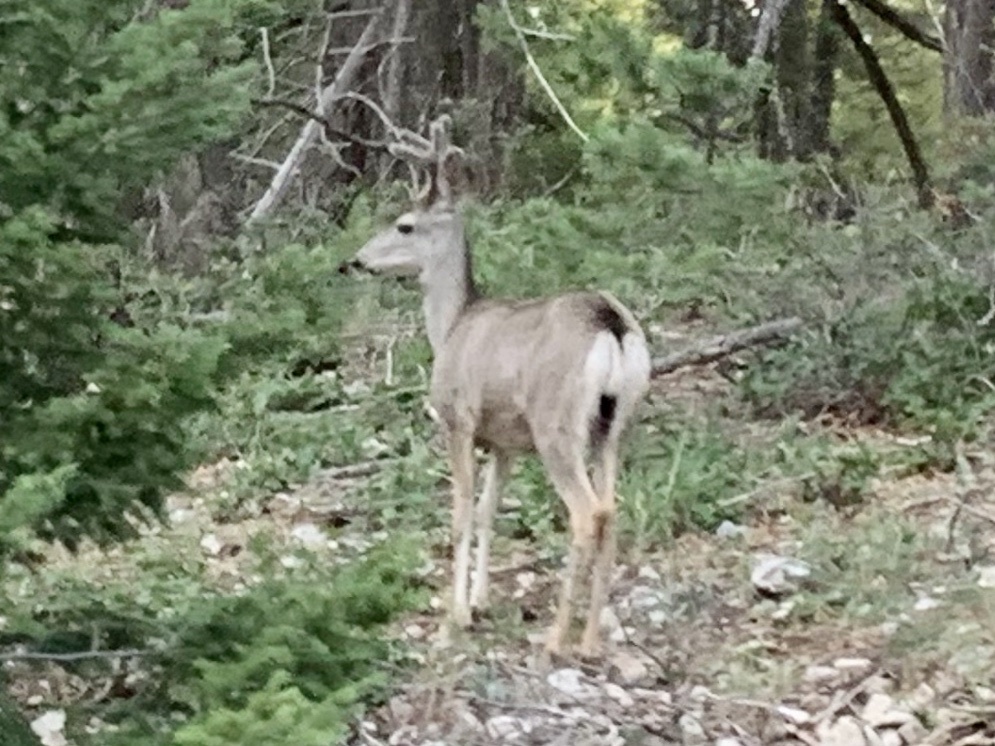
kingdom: Animalia
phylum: Chordata
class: Mammalia
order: Artiodactyla
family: Cervidae
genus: Odocoileus
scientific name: Odocoileus hemionus
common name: Mule deer
